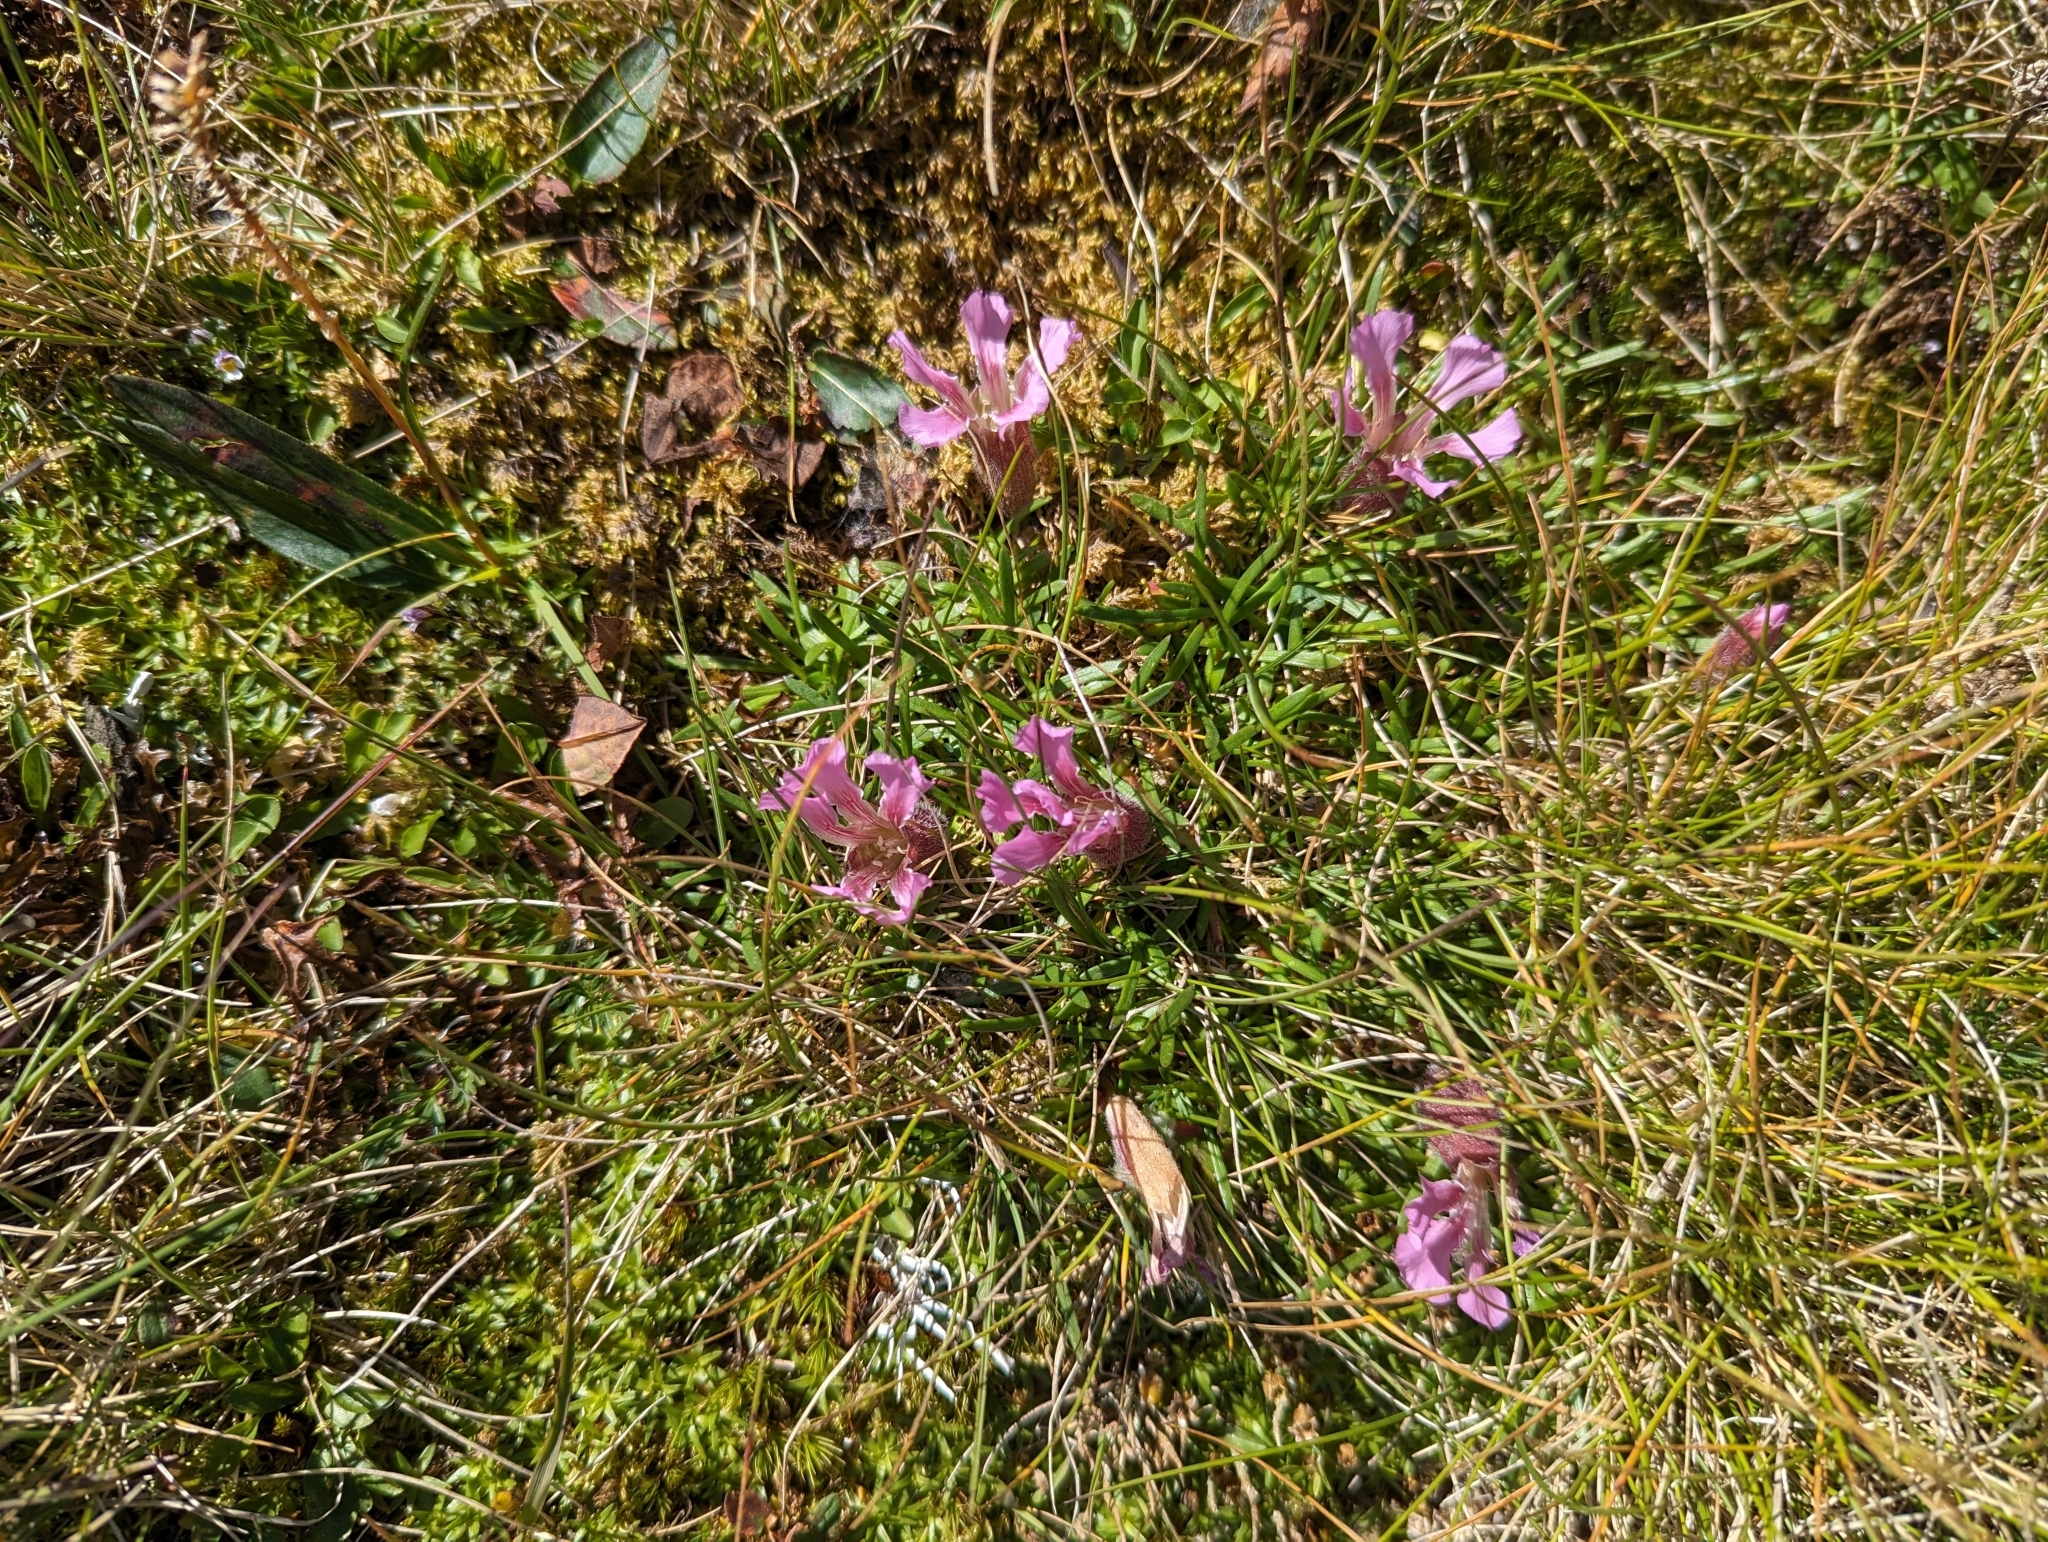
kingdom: Plantae
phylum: Tracheophyta
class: Magnoliopsida
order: Caryophyllales
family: Caryophyllaceae
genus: Saponaria
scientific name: Saponaria pumila
